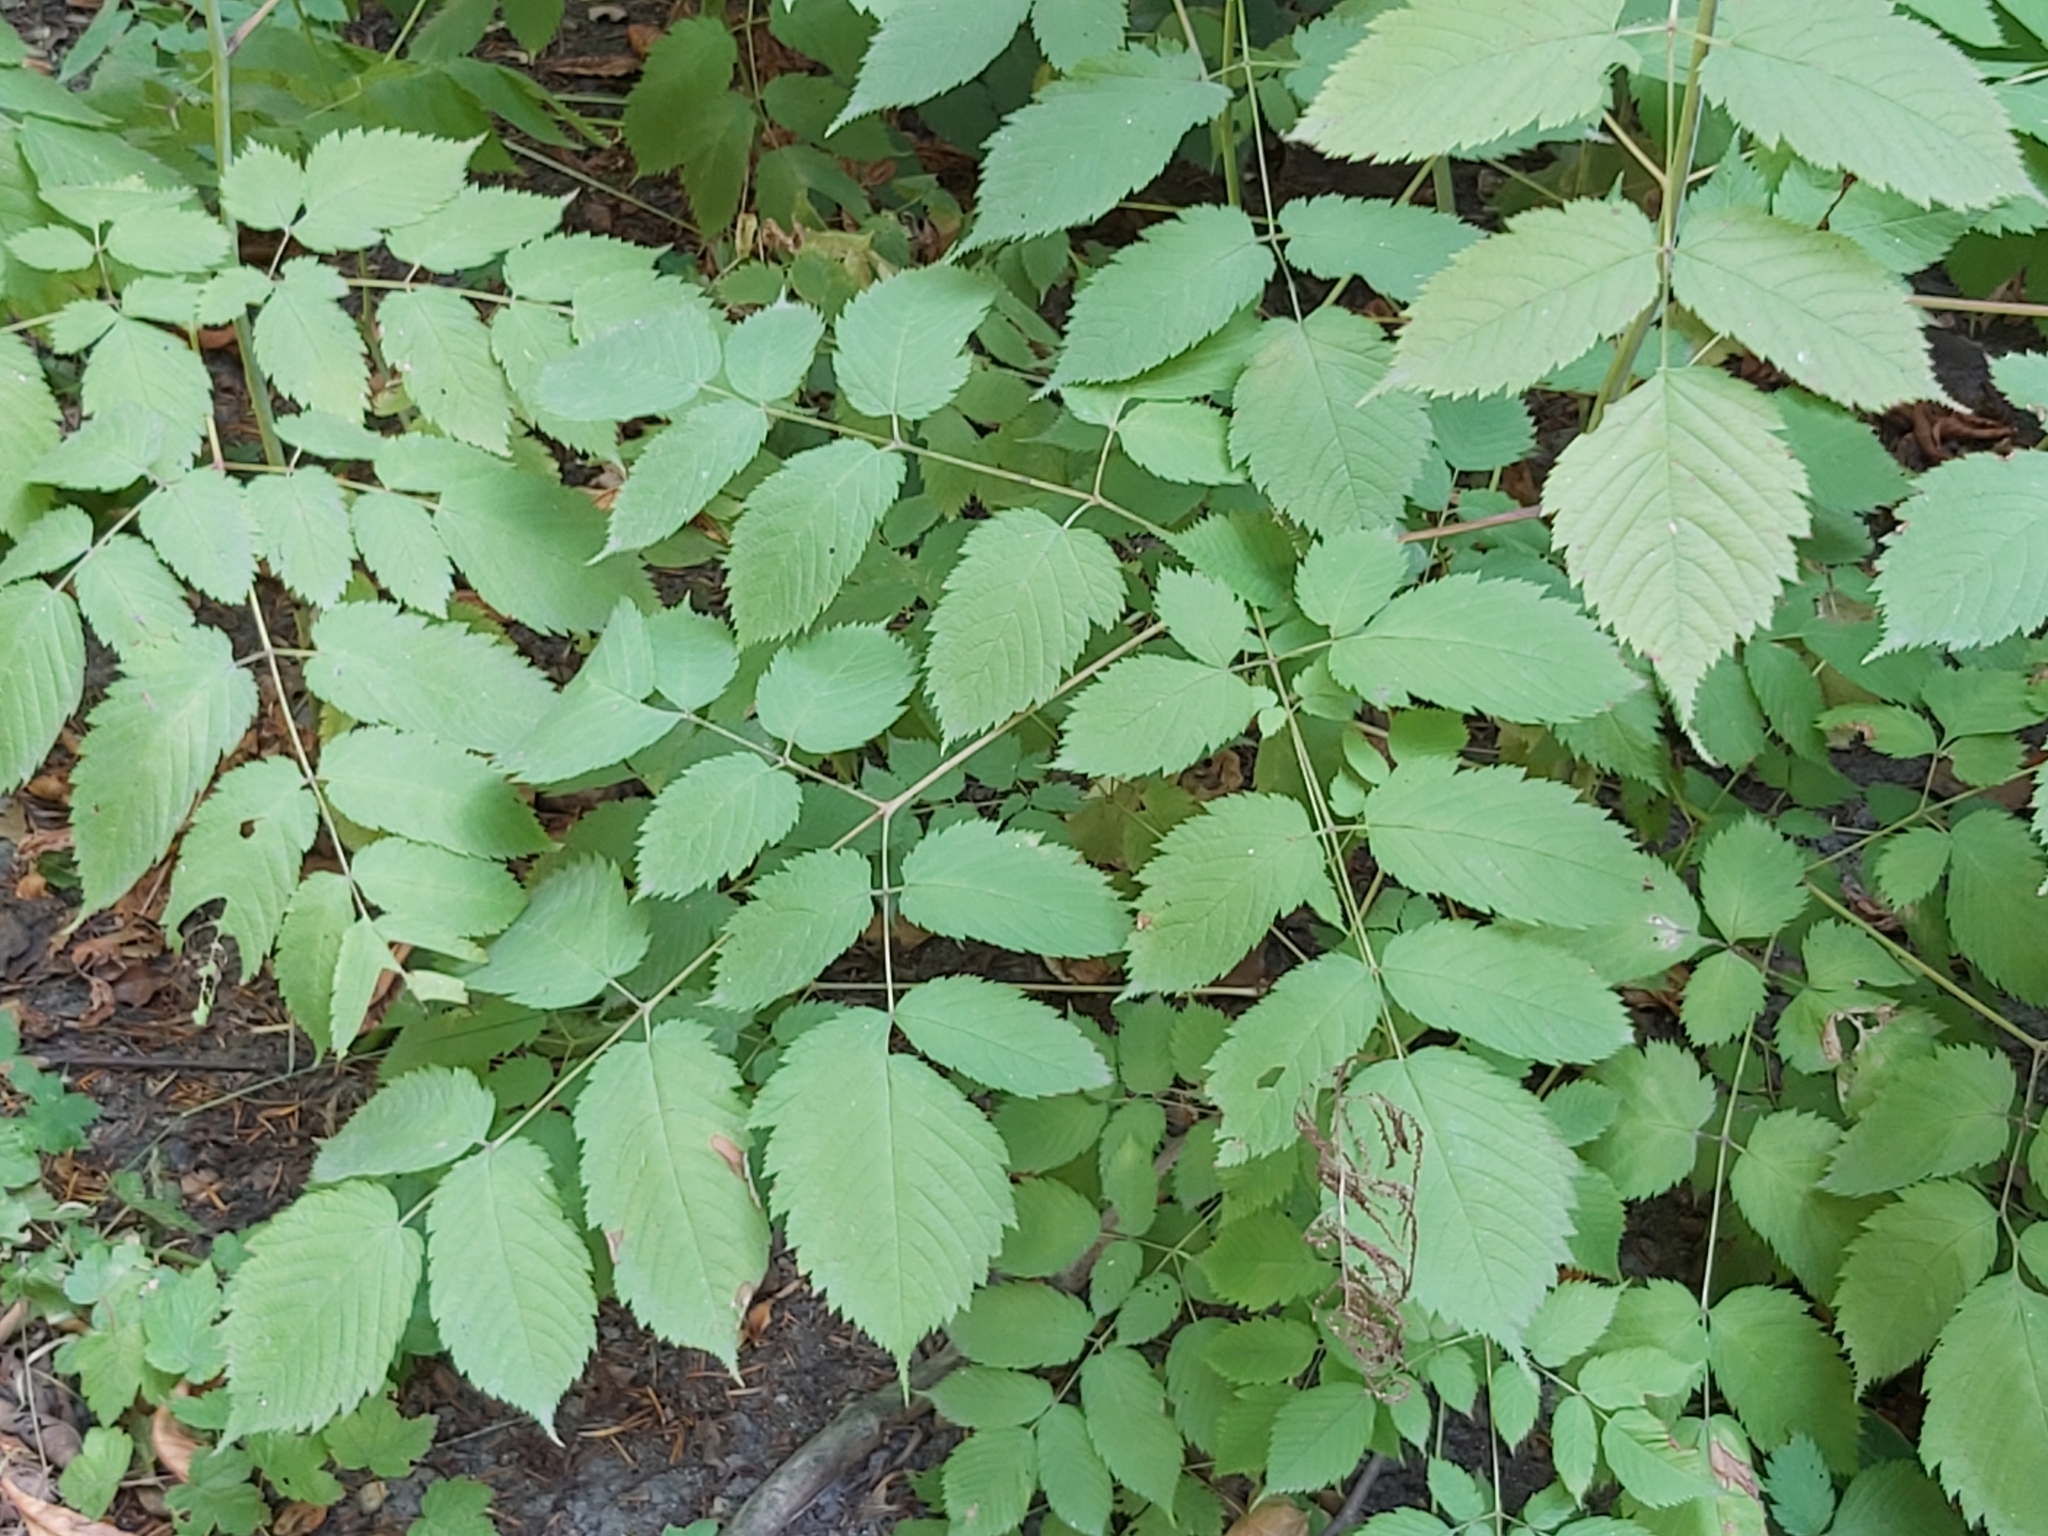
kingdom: Plantae
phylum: Tracheophyta
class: Magnoliopsida
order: Rosales
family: Rosaceae
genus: Aruncus
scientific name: Aruncus dioicus
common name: Buck's-beard
